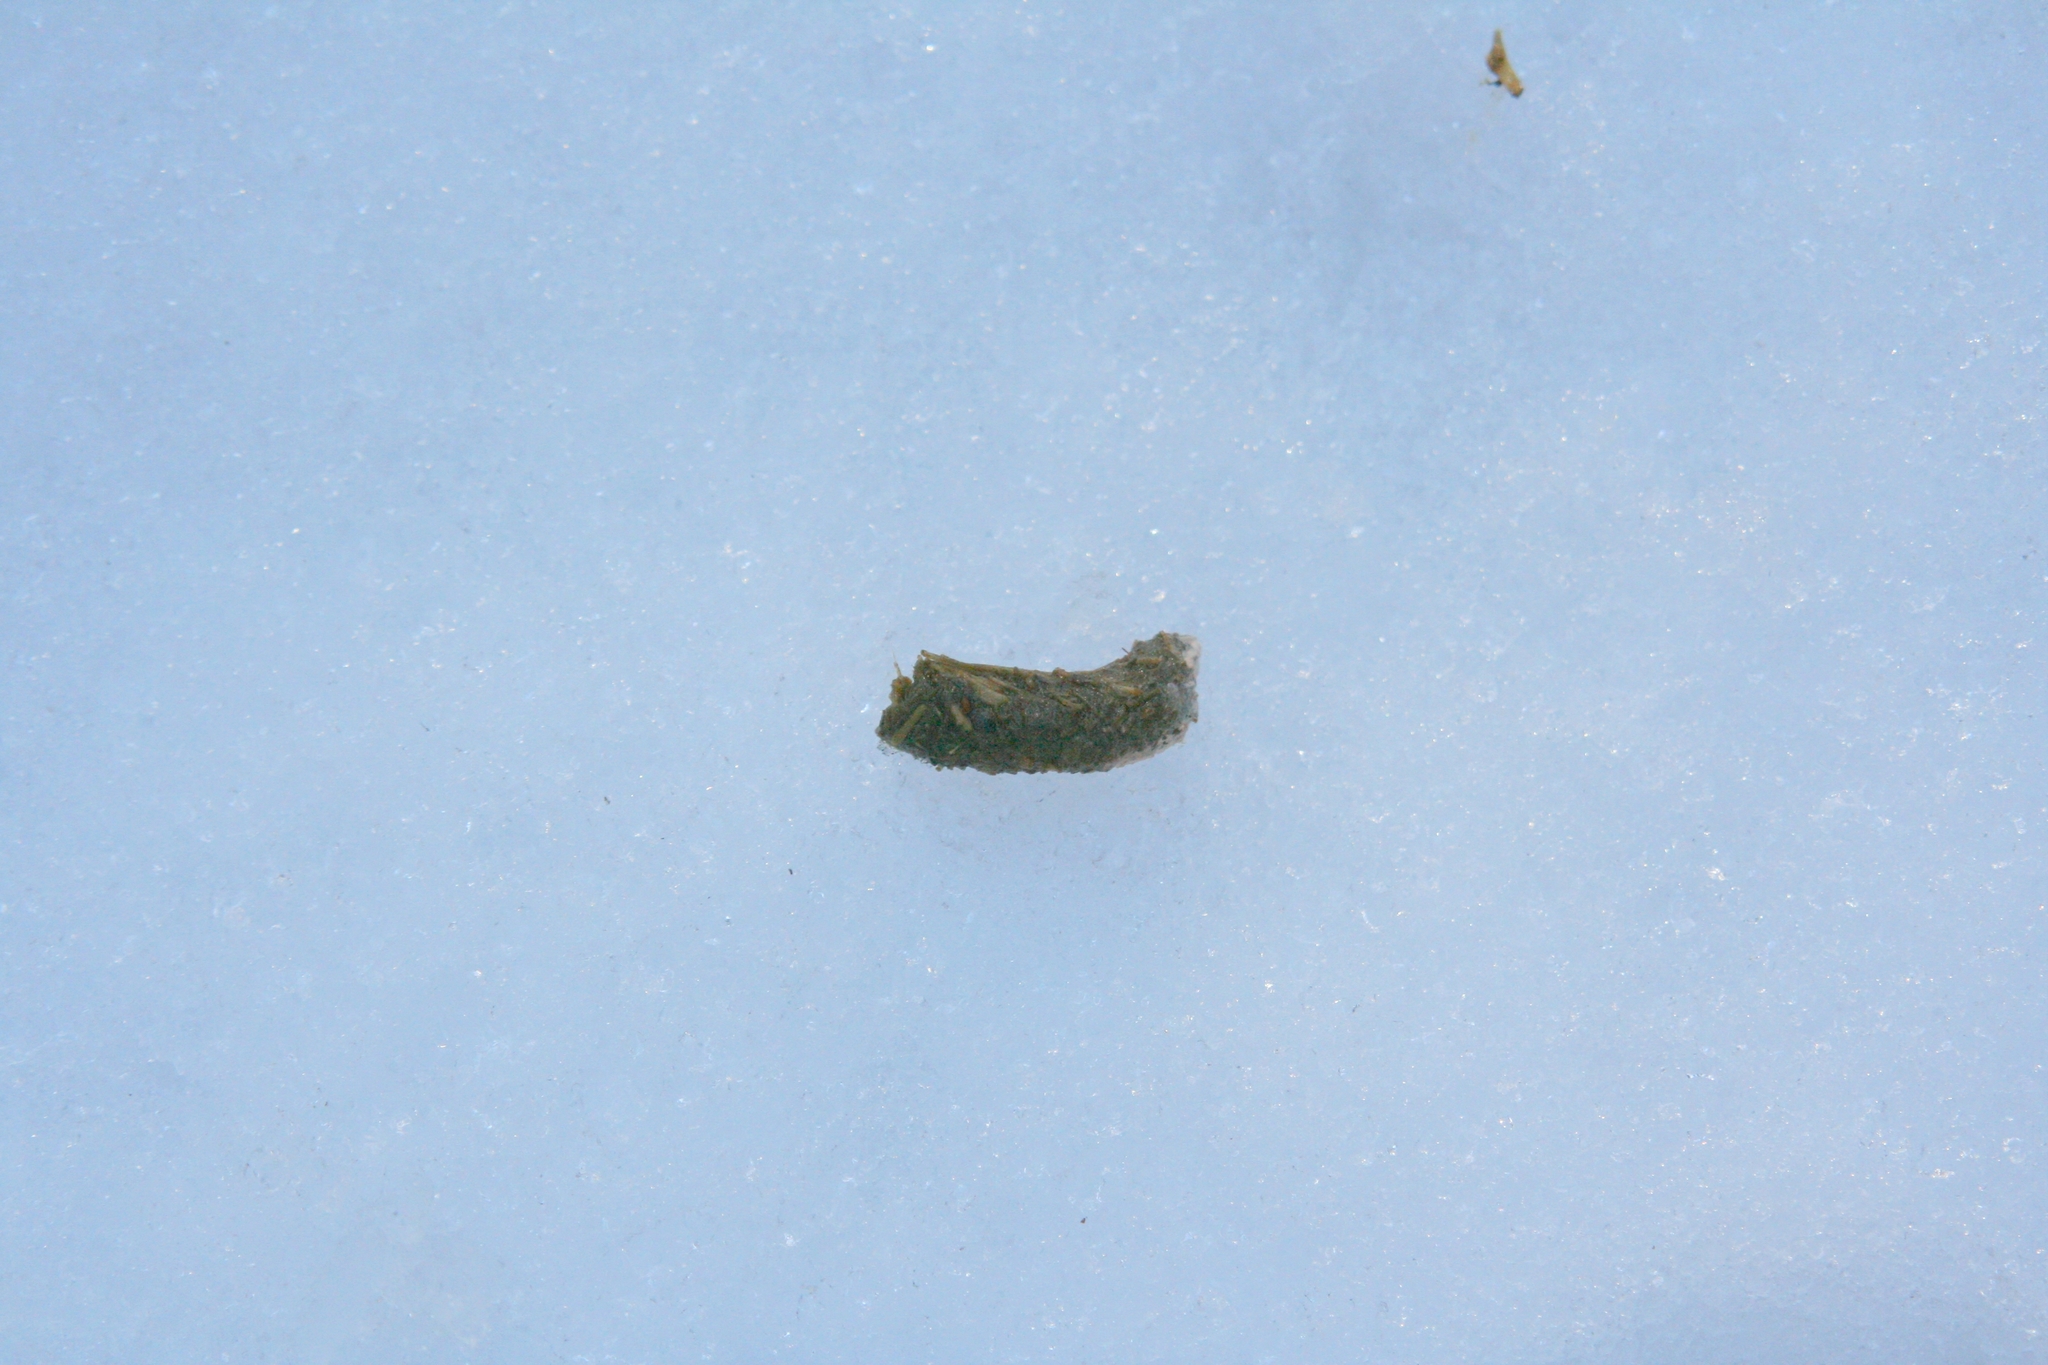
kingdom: Animalia
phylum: Chordata
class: Aves
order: Galliformes
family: Phasianidae
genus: Tetrastes
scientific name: Tetrastes bonasia
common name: Hazel grouse
